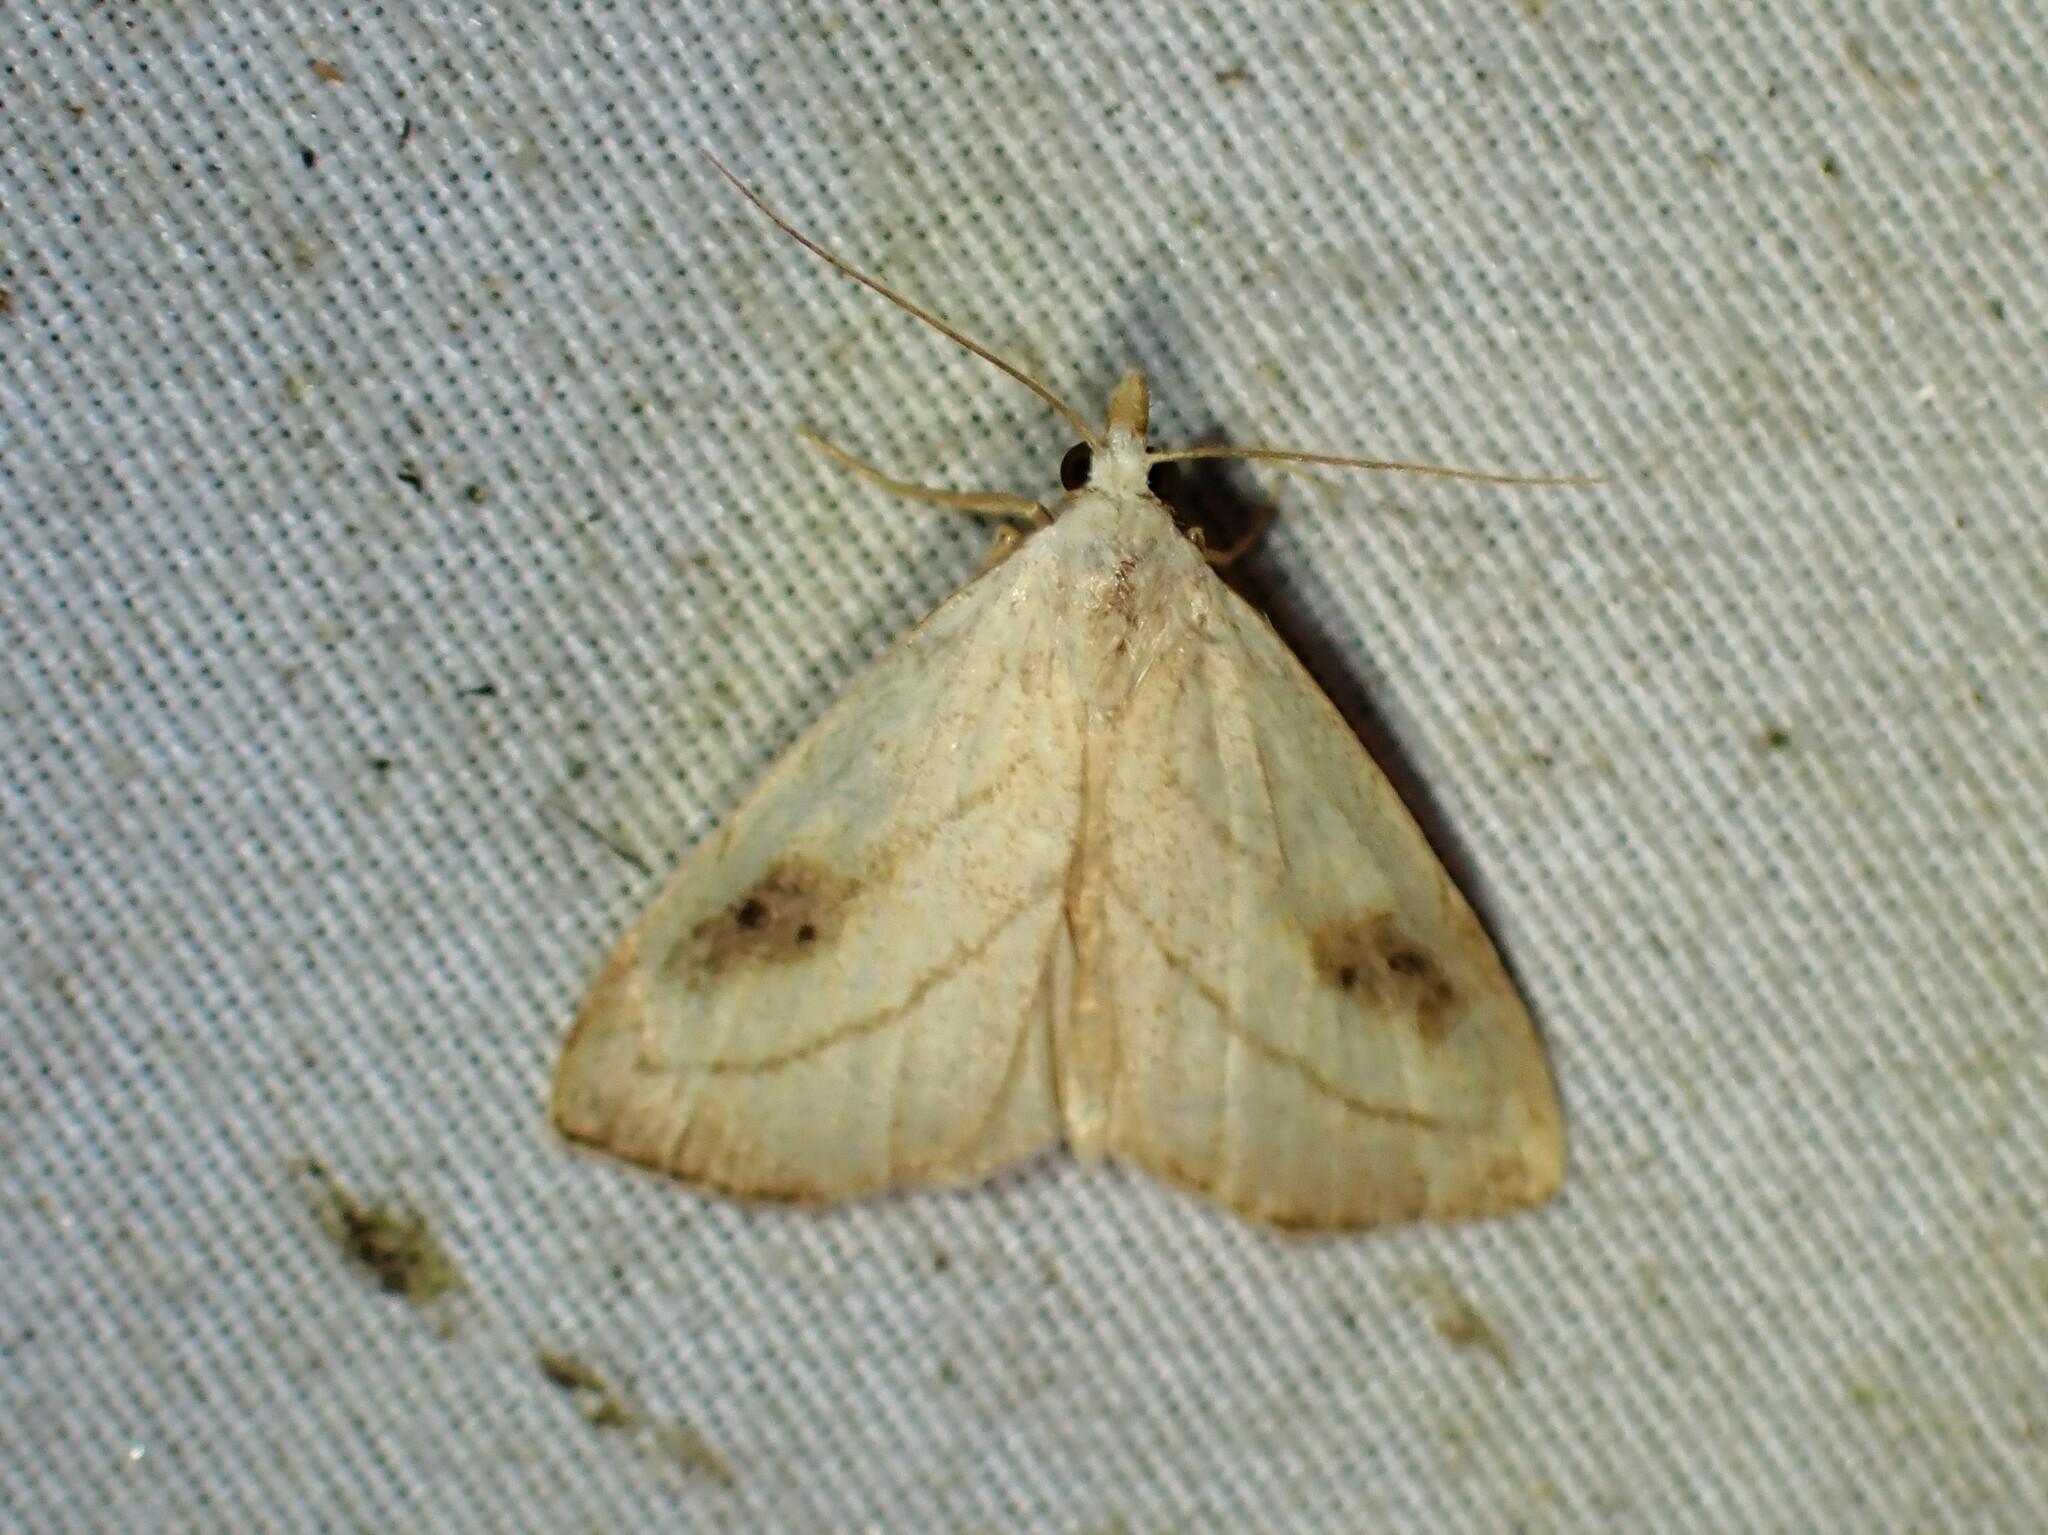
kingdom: Animalia
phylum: Arthropoda
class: Insecta
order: Lepidoptera
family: Erebidae
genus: Rivula
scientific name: Rivula propinqualis
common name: Spotted grass moth
